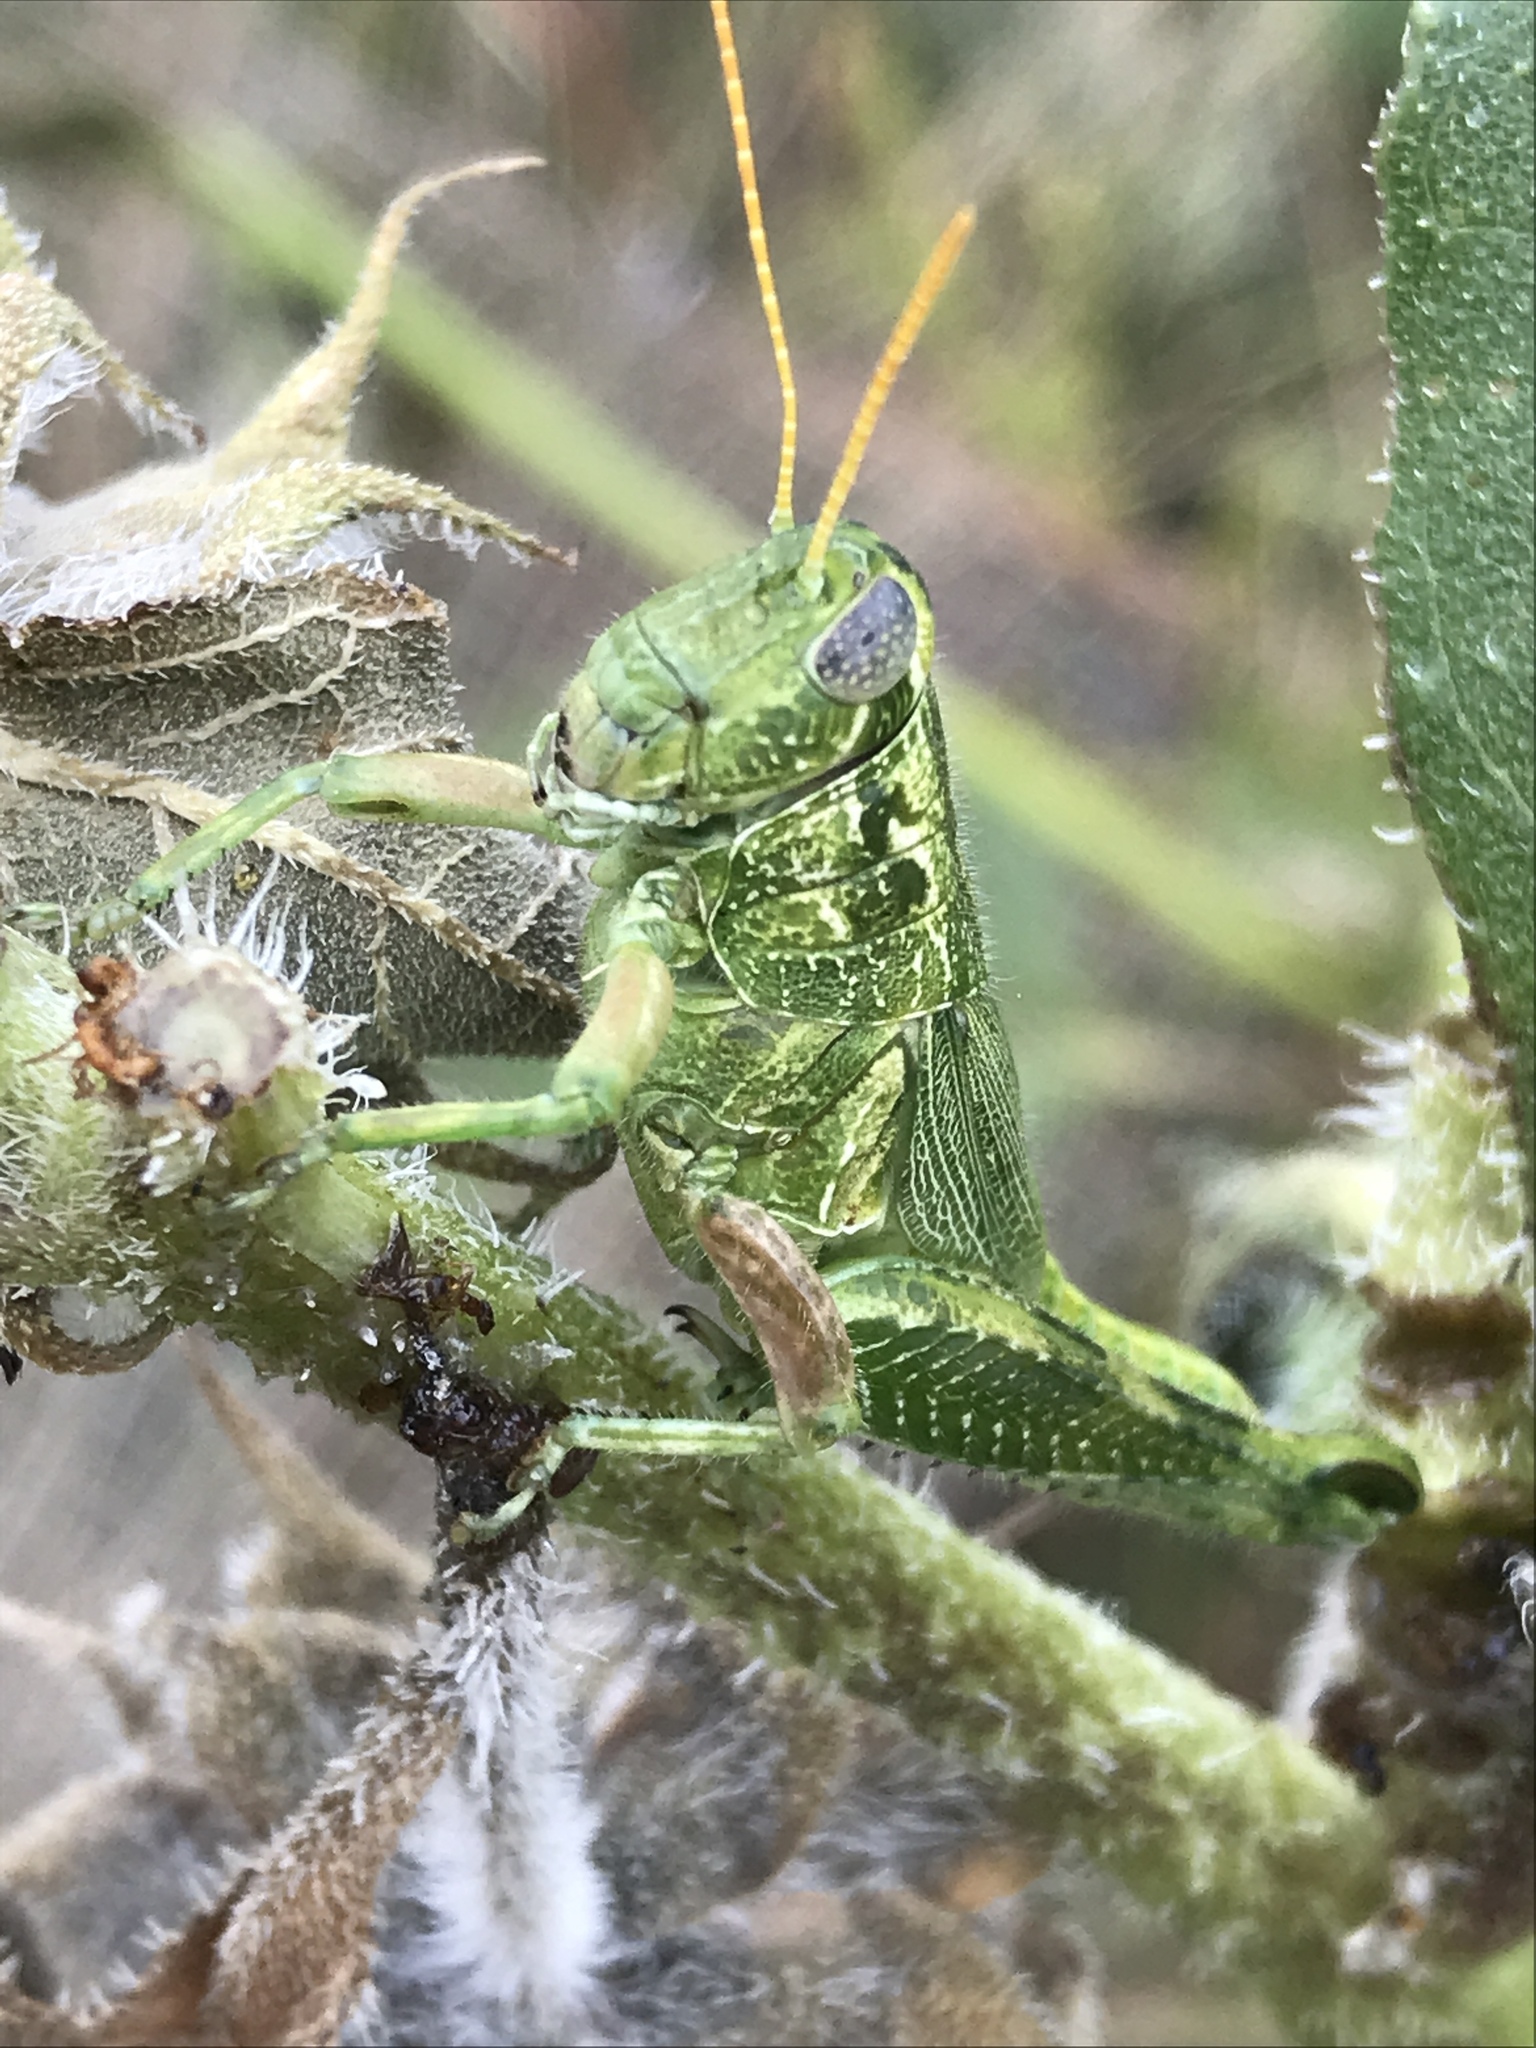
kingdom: Animalia
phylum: Arthropoda
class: Insecta
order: Orthoptera
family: Acrididae
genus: Campylacantha
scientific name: Campylacantha olivacea
